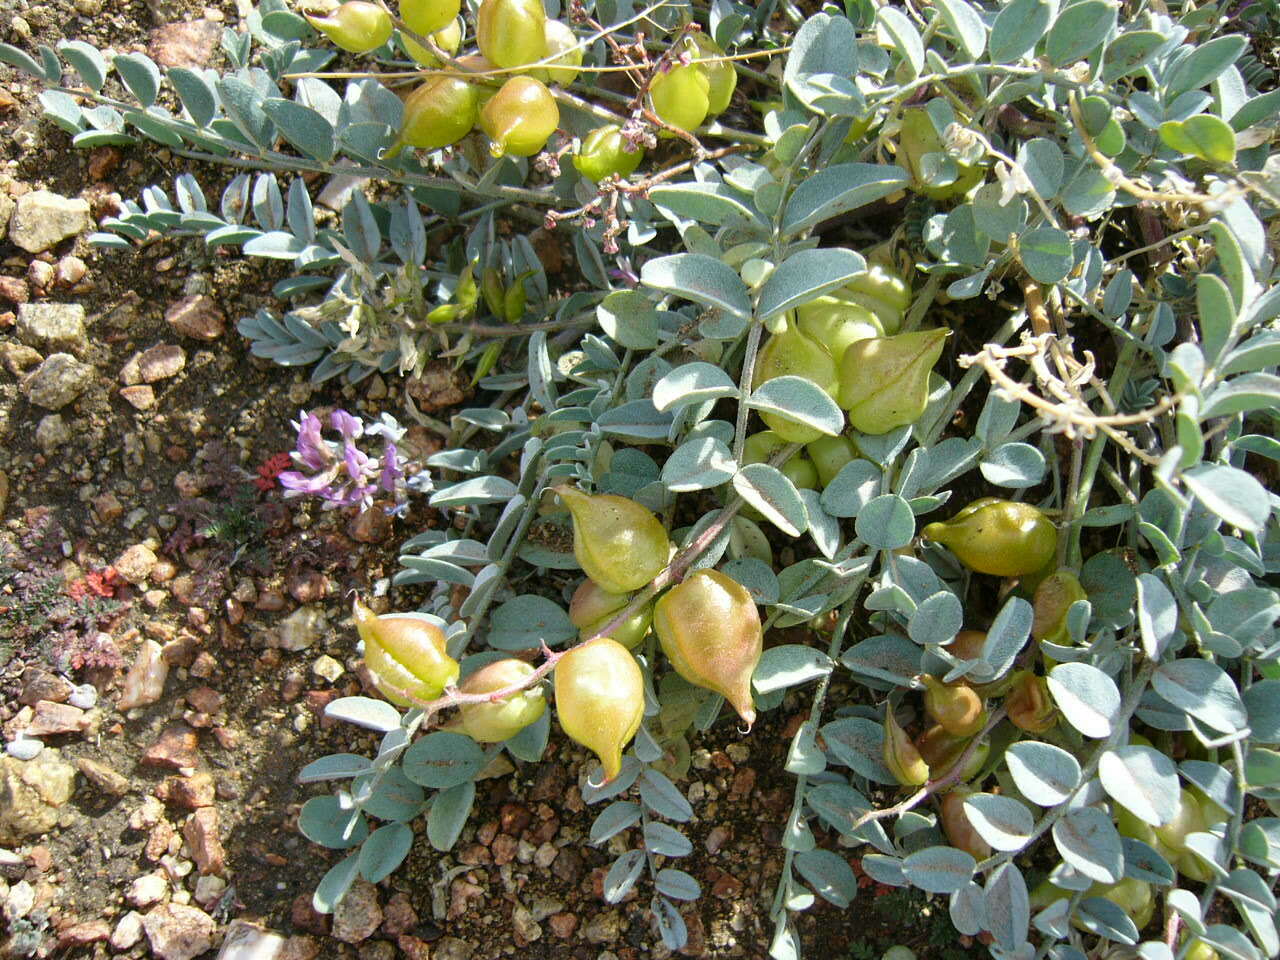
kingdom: Plantae
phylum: Tracheophyta
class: Magnoliopsida
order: Fabales
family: Fabaceae
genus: Astragalus
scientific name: Astragalus lentiginosus
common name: Freckled milkvetch
